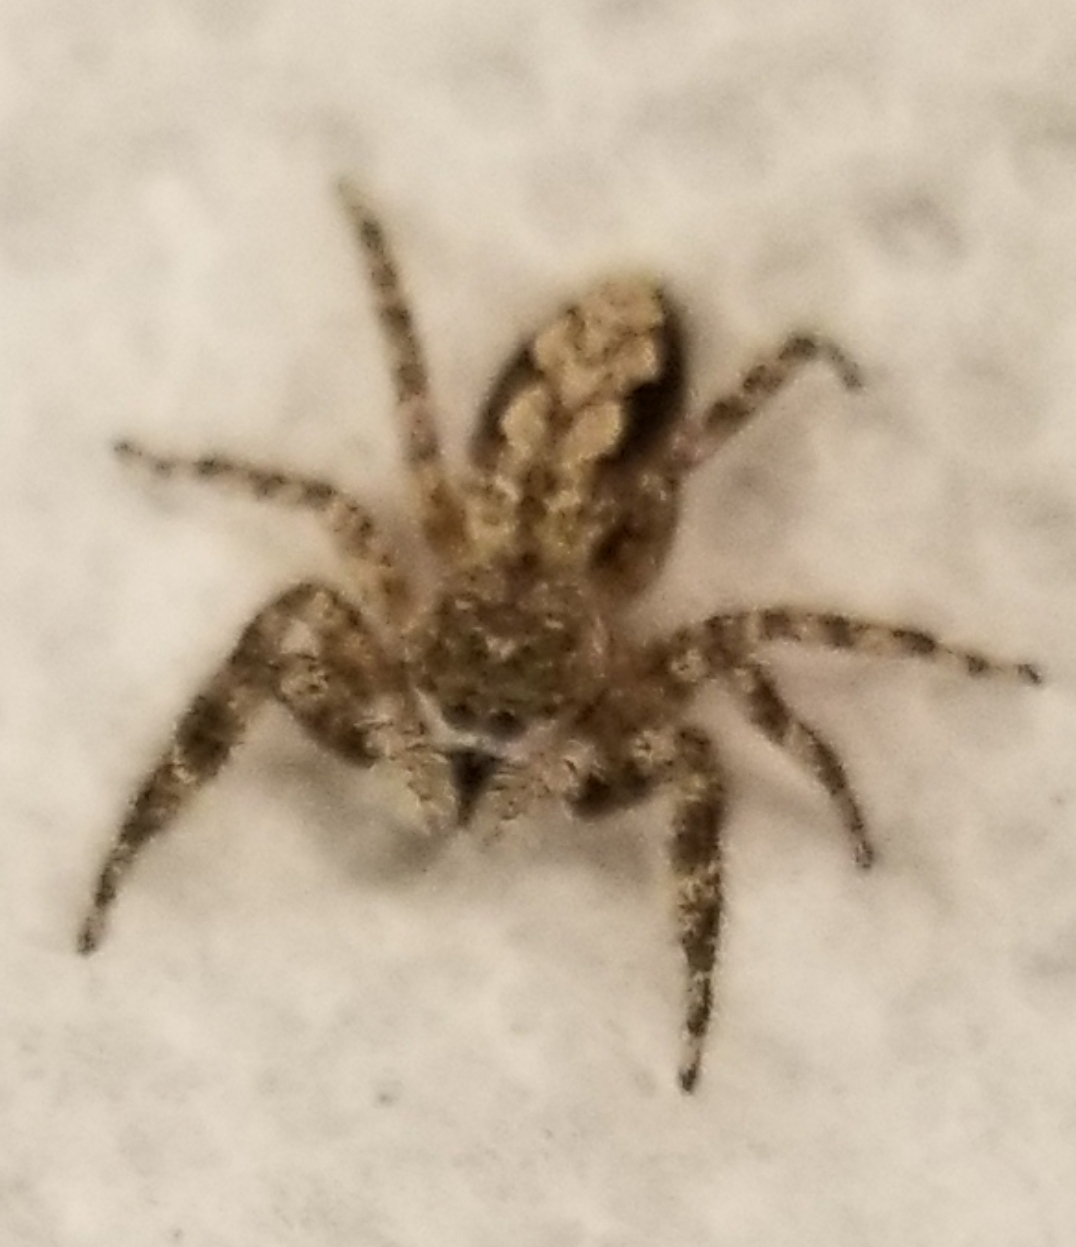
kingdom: Animalia
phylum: Arthropoda
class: Arachnida
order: Araneae
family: Salticidae
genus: Platycryptus
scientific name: Platycryptus undatus
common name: Tan jumping spider
